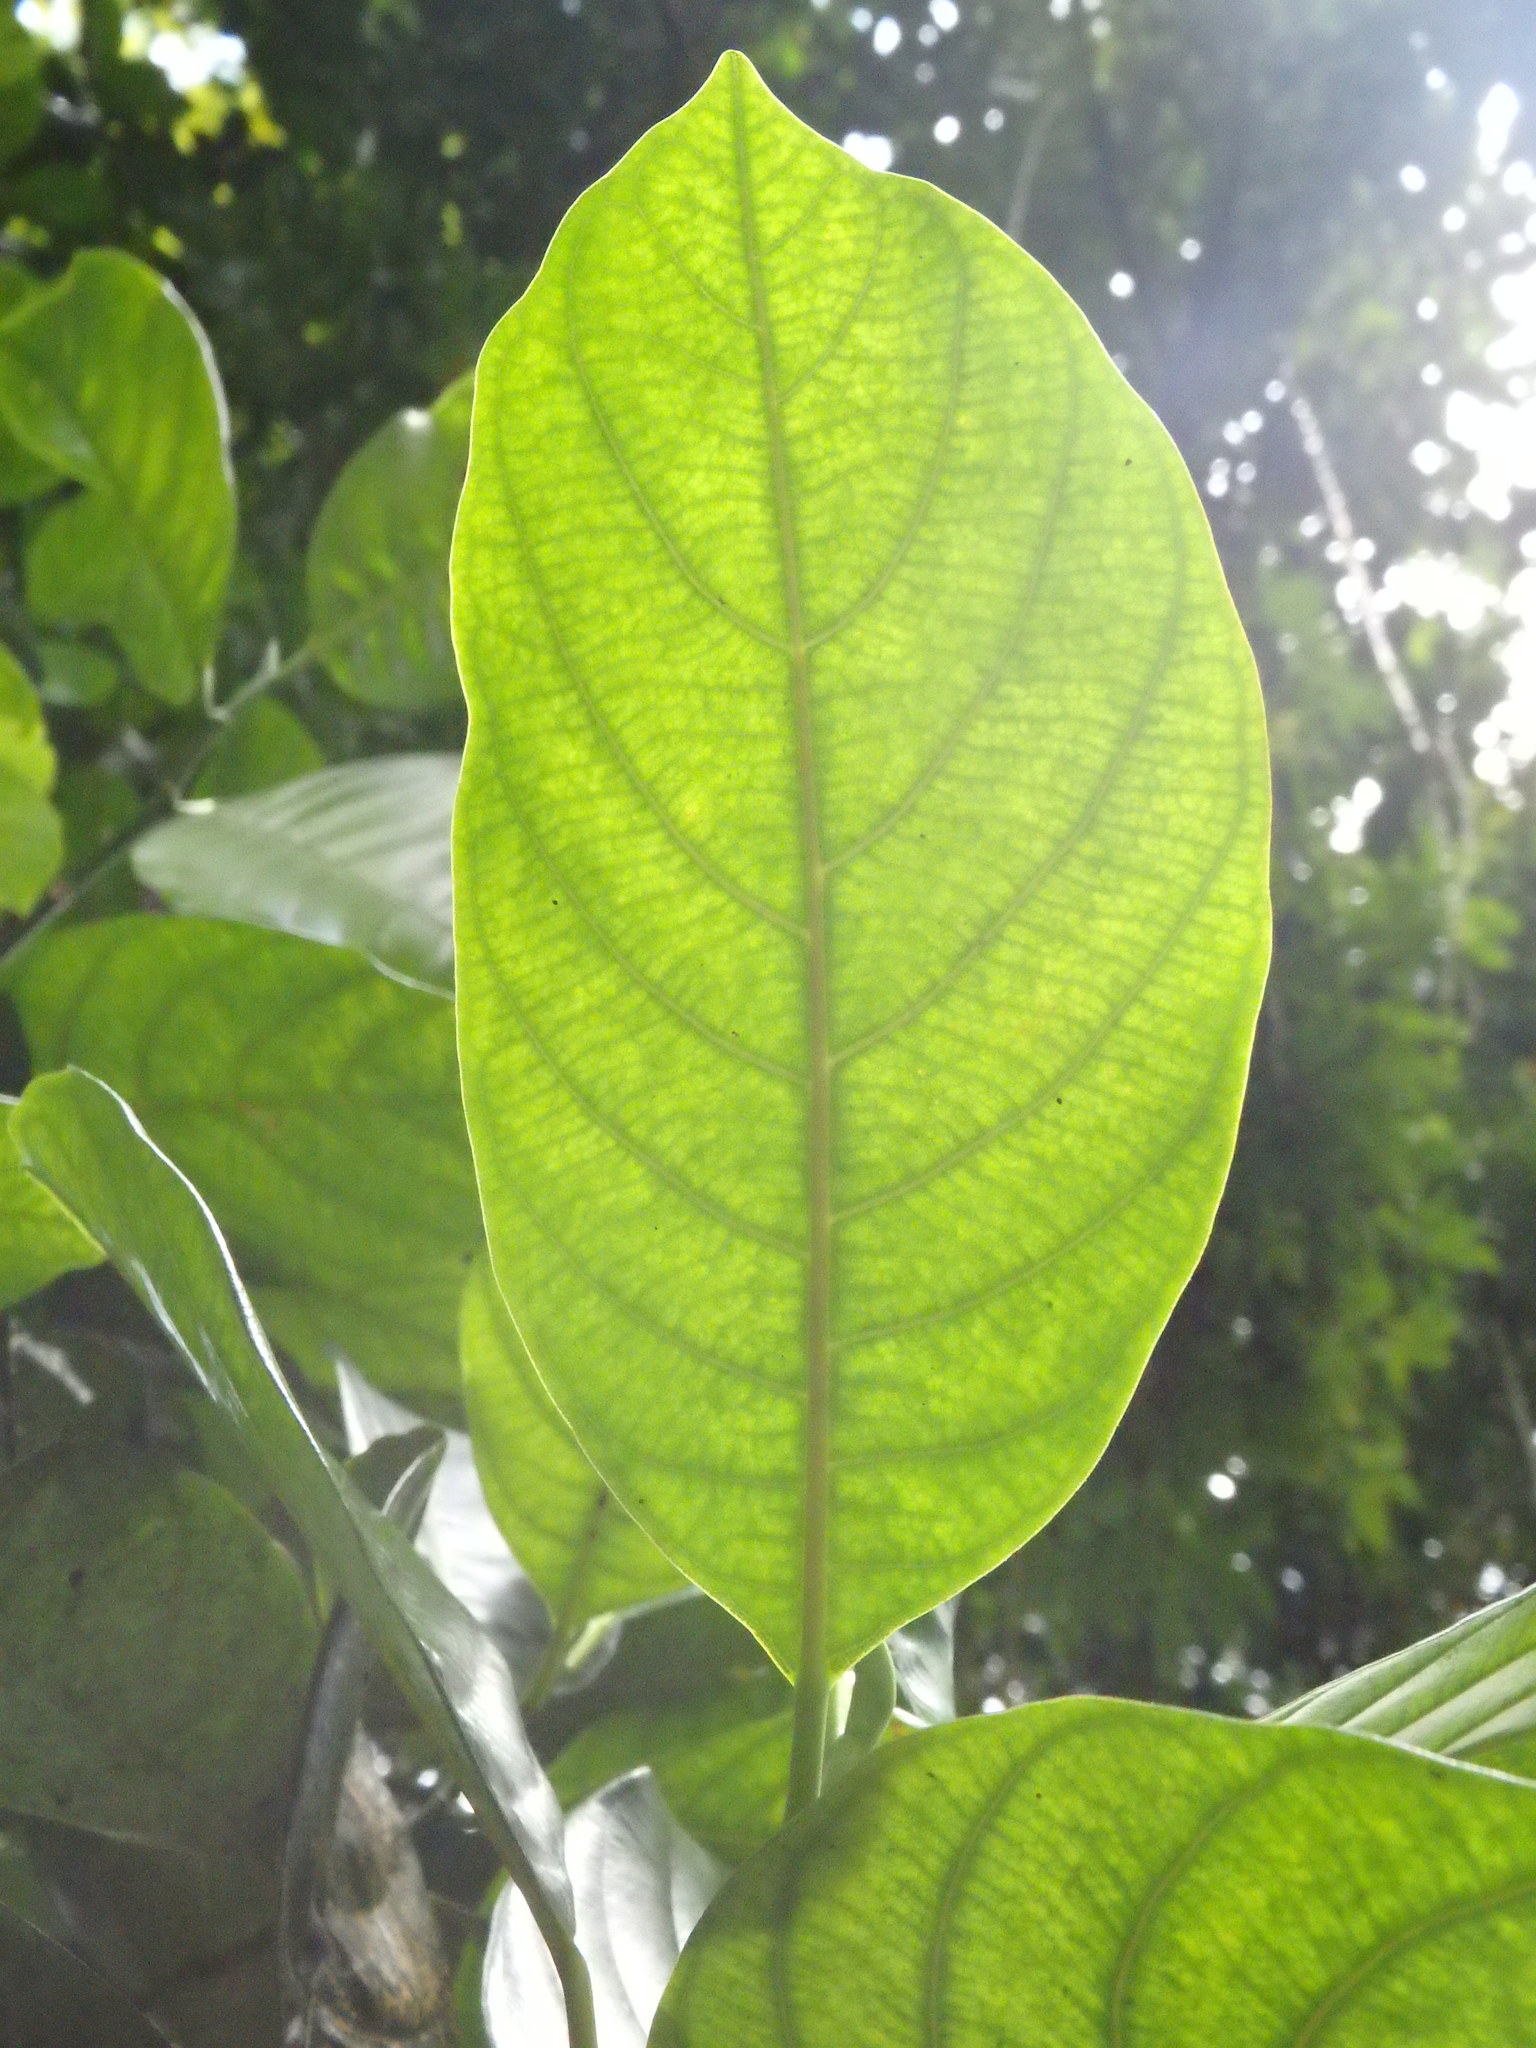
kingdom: Plantae
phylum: Tracheophyta
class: Magnoliopsida
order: Rosales
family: Moraceae
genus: Artocarpus
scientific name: Artocarpus heterophyllus
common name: Jackfruit
